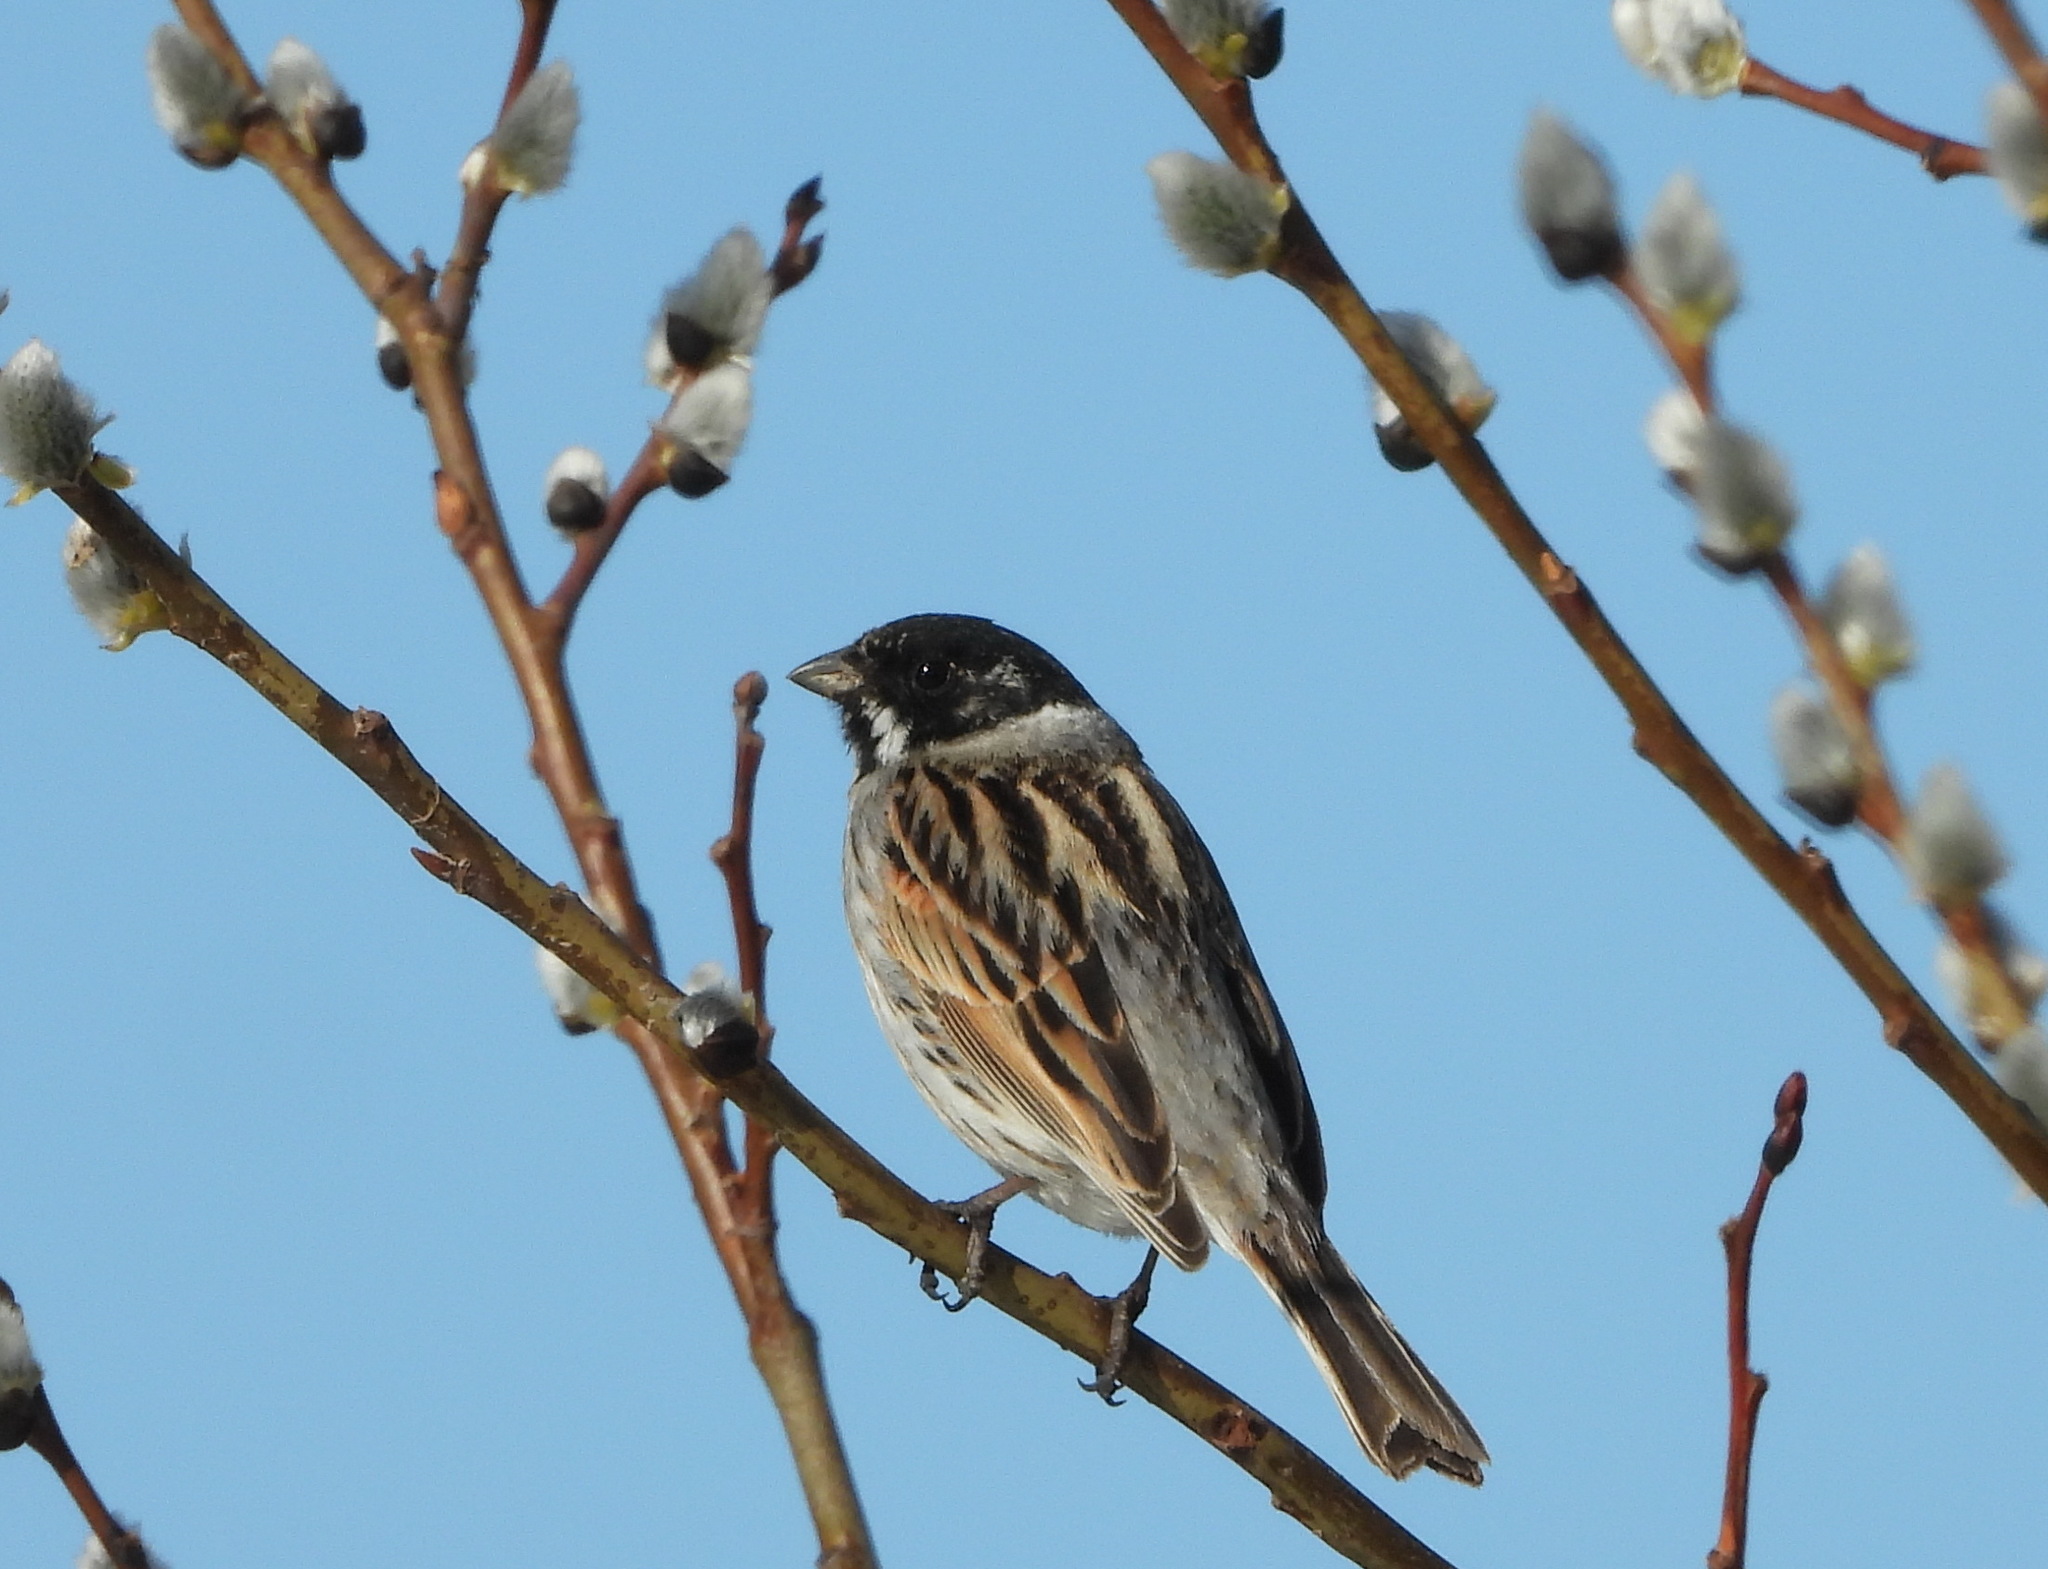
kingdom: Animalia
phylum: Chordata
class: Aves
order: Passeriformes
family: Emberizidae
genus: Emberiza
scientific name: Emberiza schoeniclus
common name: Reed bunting
